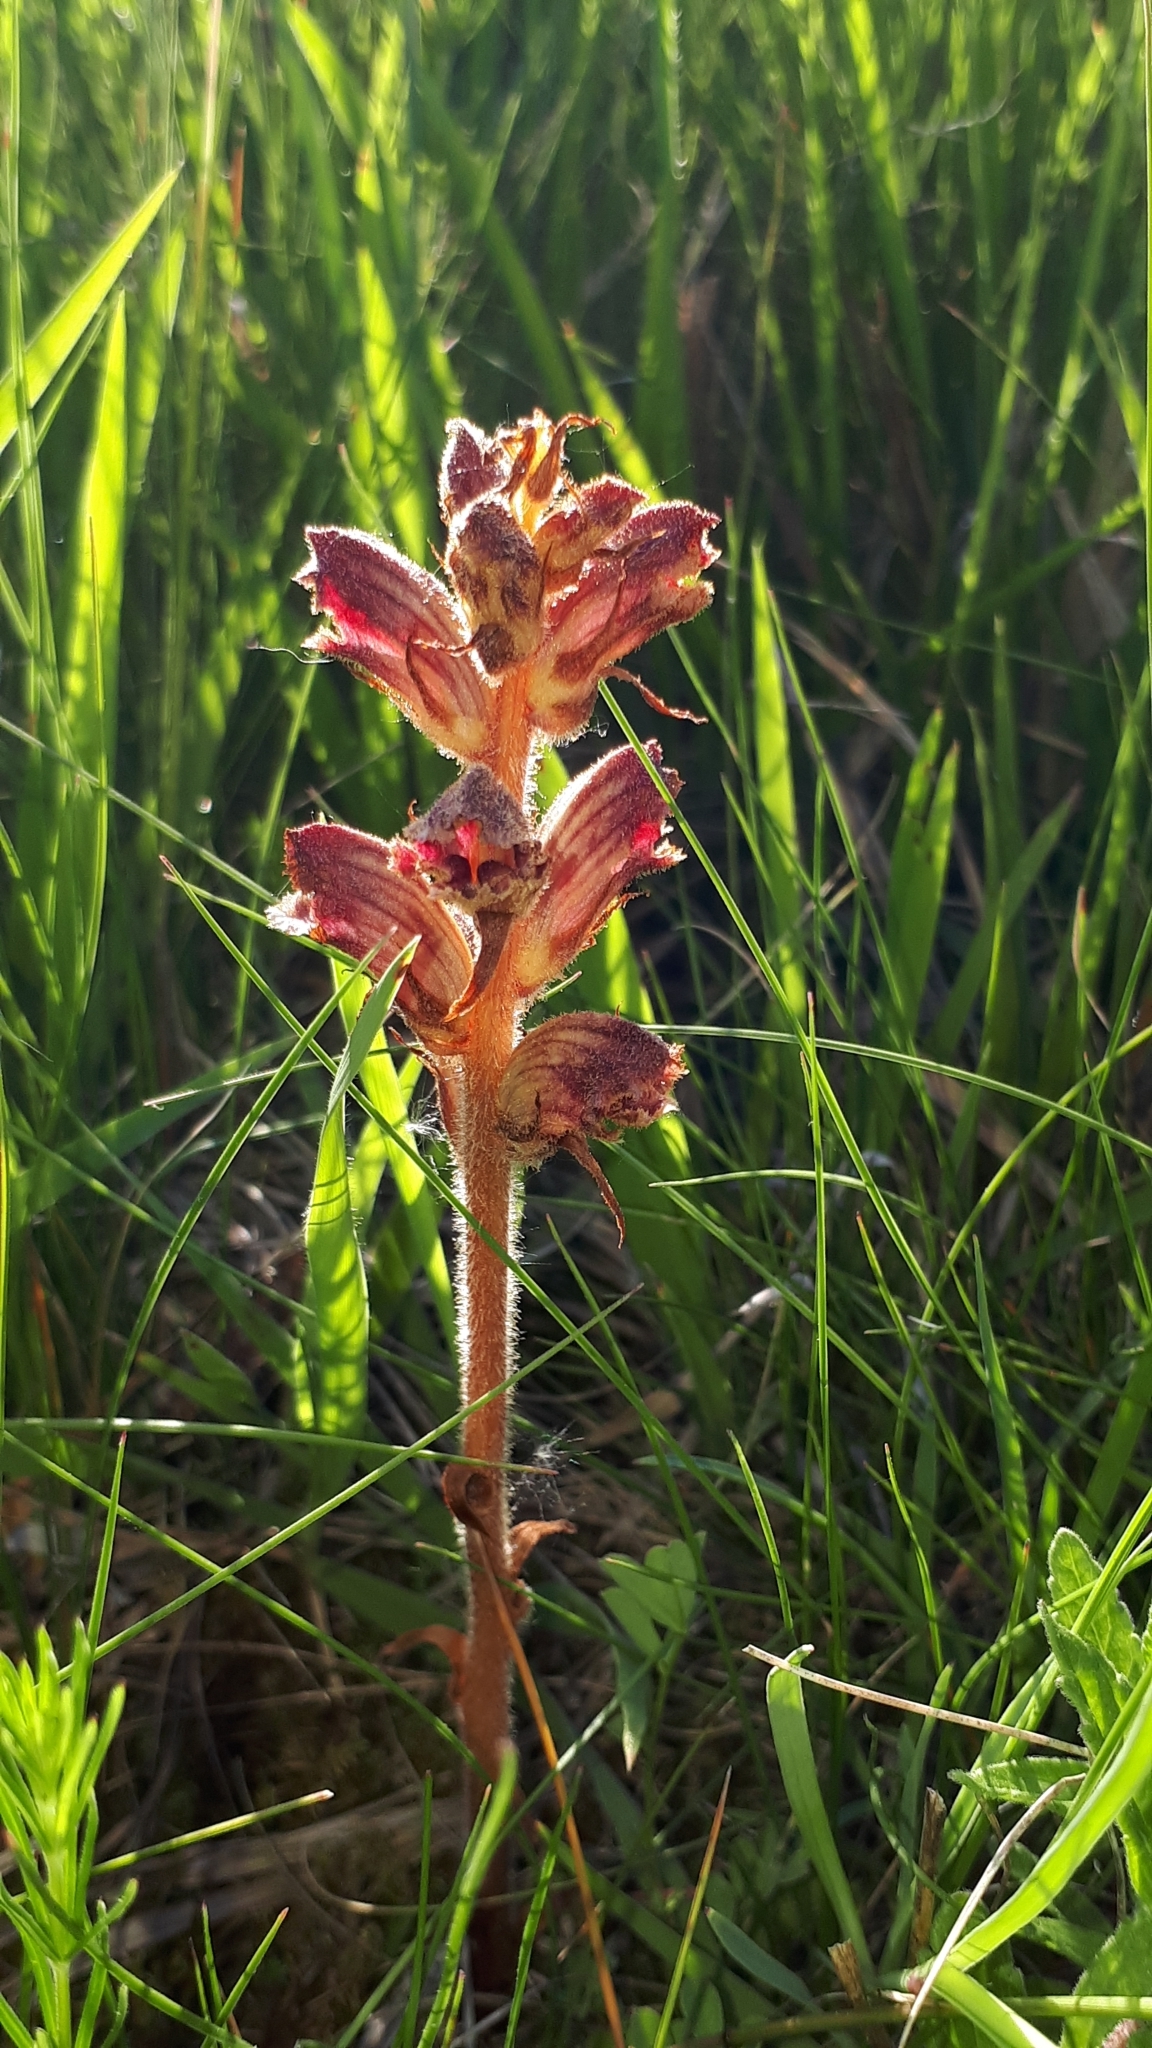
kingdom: Plantae
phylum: Tracheophyta
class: Magnoliopsida
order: Lamiales
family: Orobanchaceae
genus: Orobanche
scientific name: Orobanche gracilis
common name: Slender broomrape
